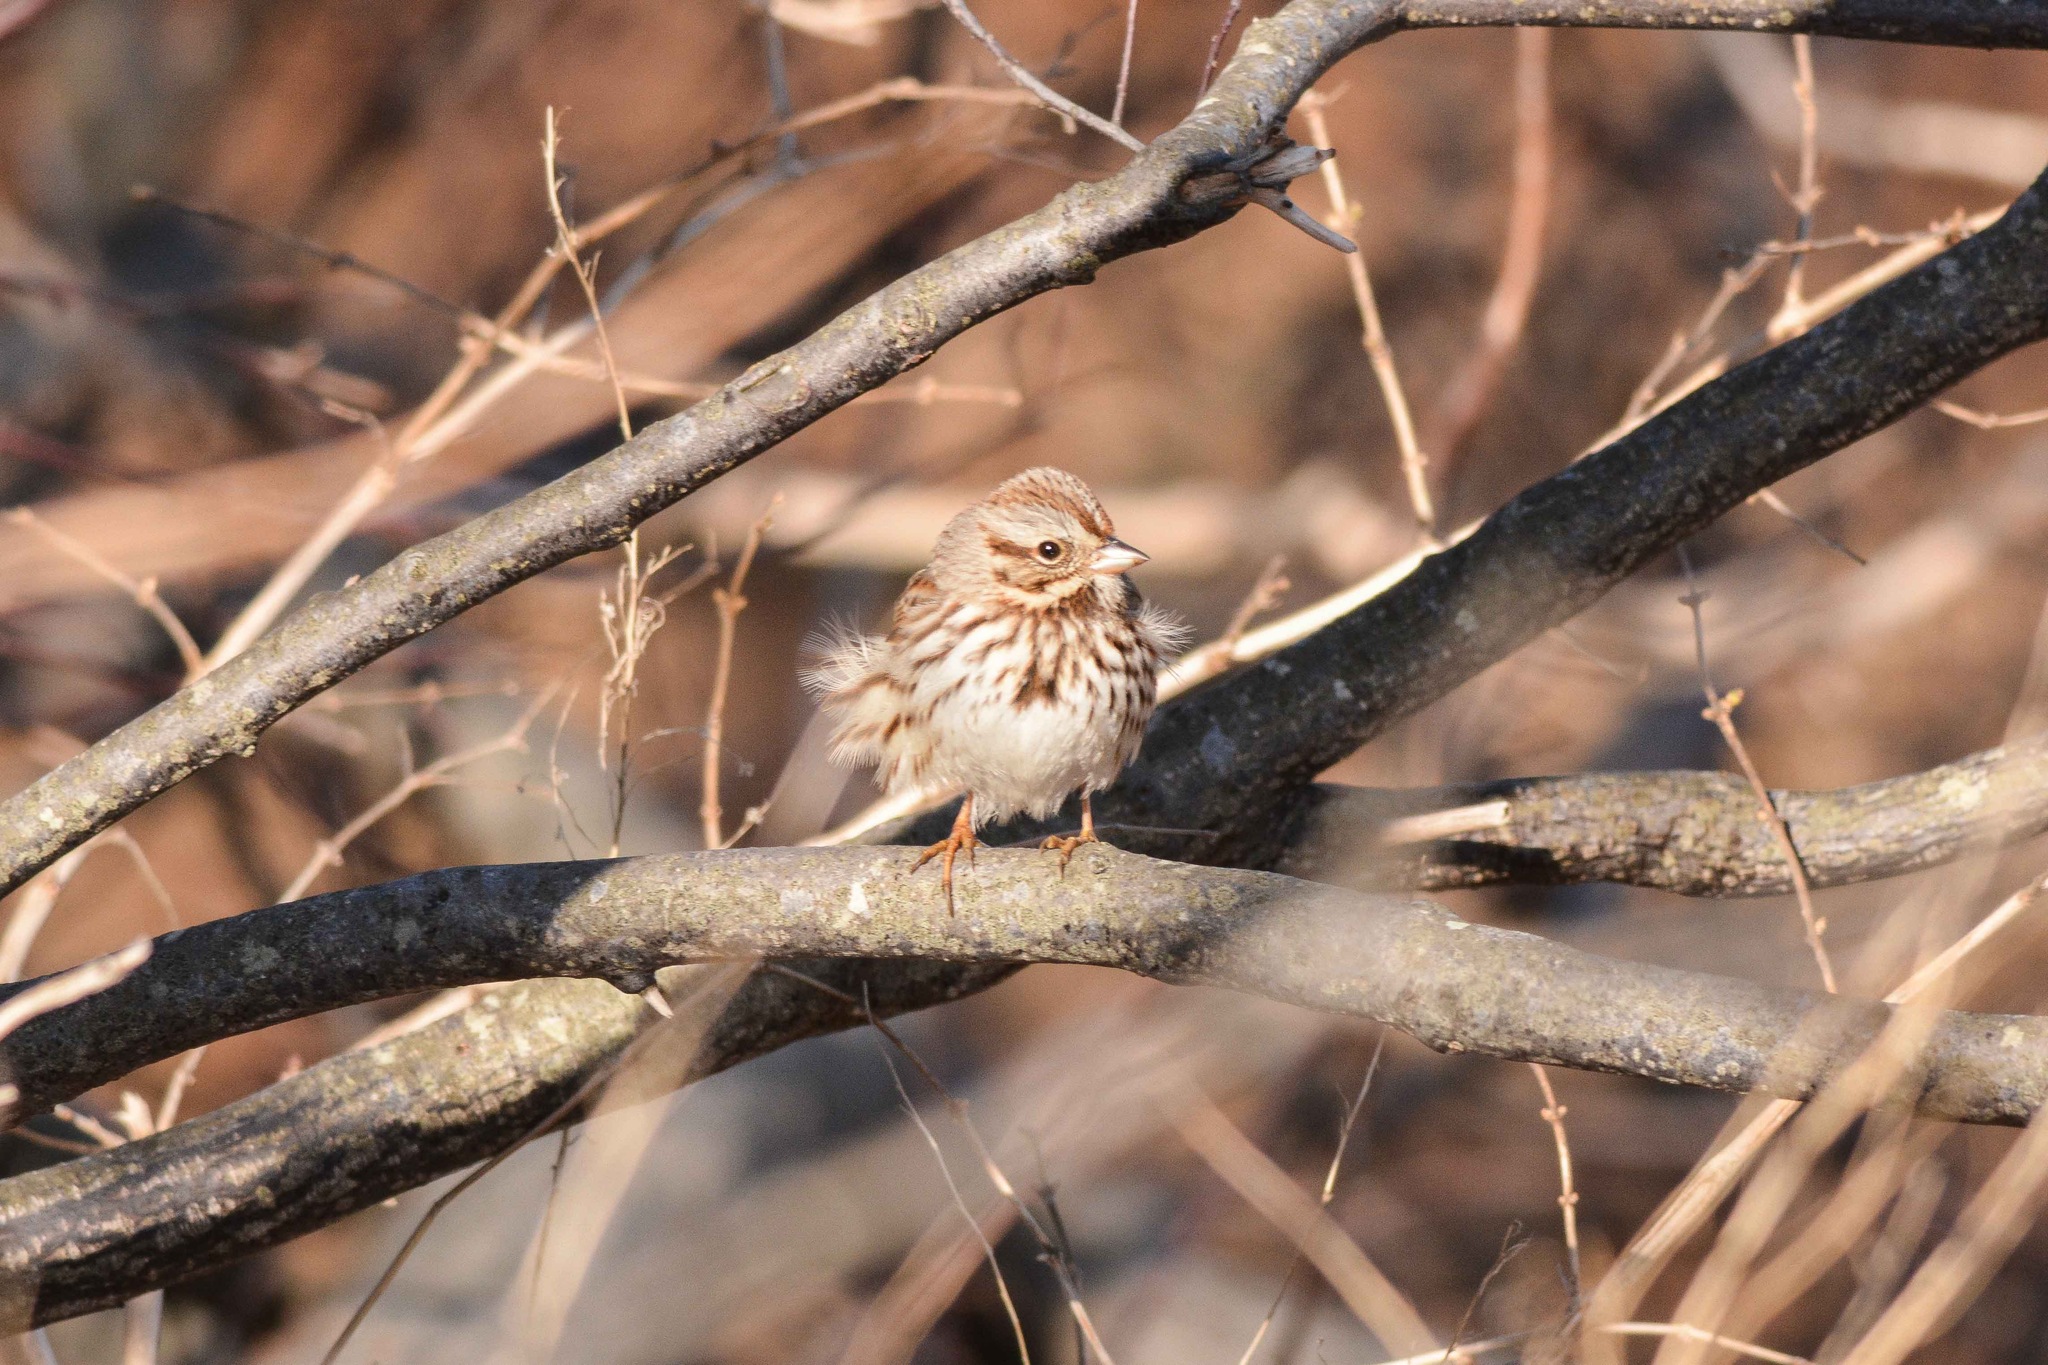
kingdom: Animalia
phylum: Chordata
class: Aves
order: Passeriformes
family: Passerellidae
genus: Melospiza
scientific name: Melospiza melodia
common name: Song sparrow
